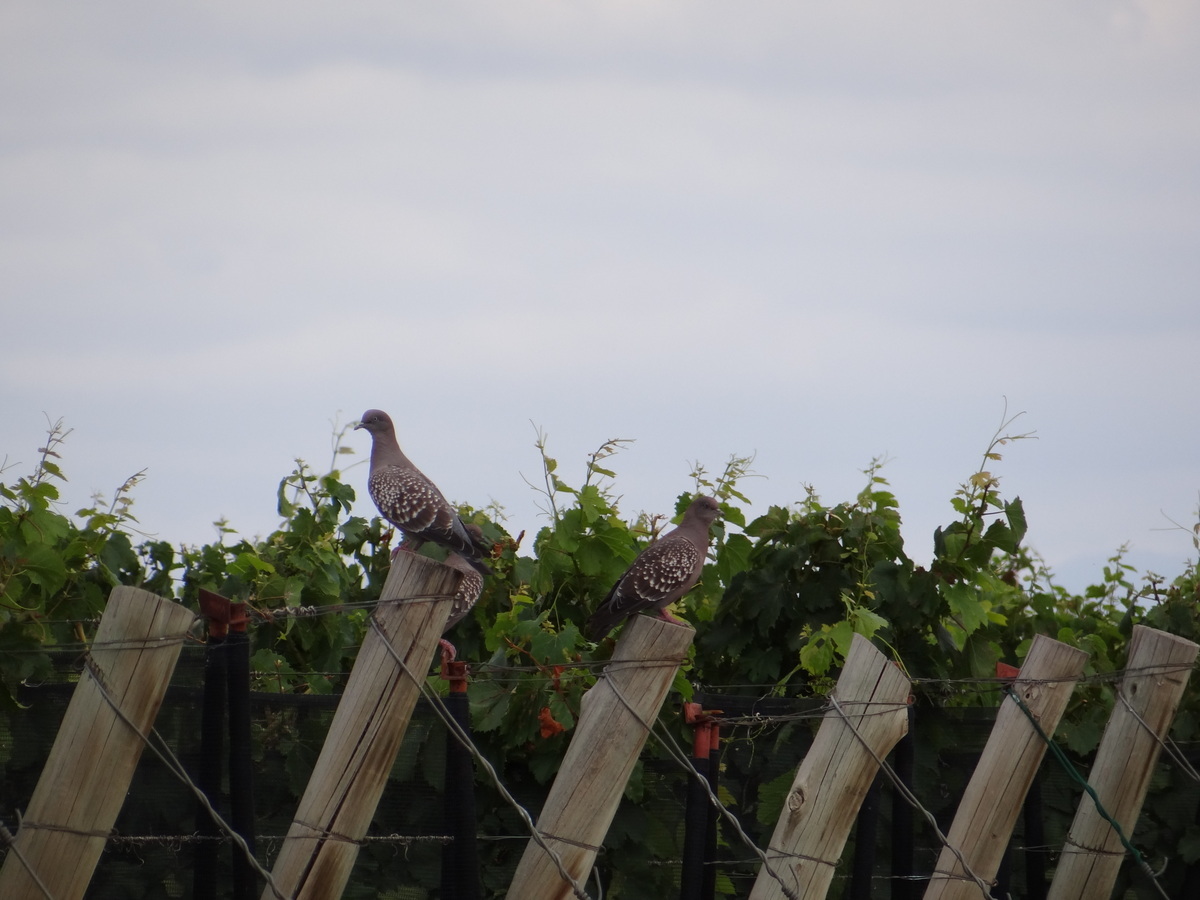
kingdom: Animalia
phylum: Chordata
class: Aves
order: Columbiformes
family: Columbidae
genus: Patagioenas
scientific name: Patagioenas maculosa
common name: Spot-winged pigeon
